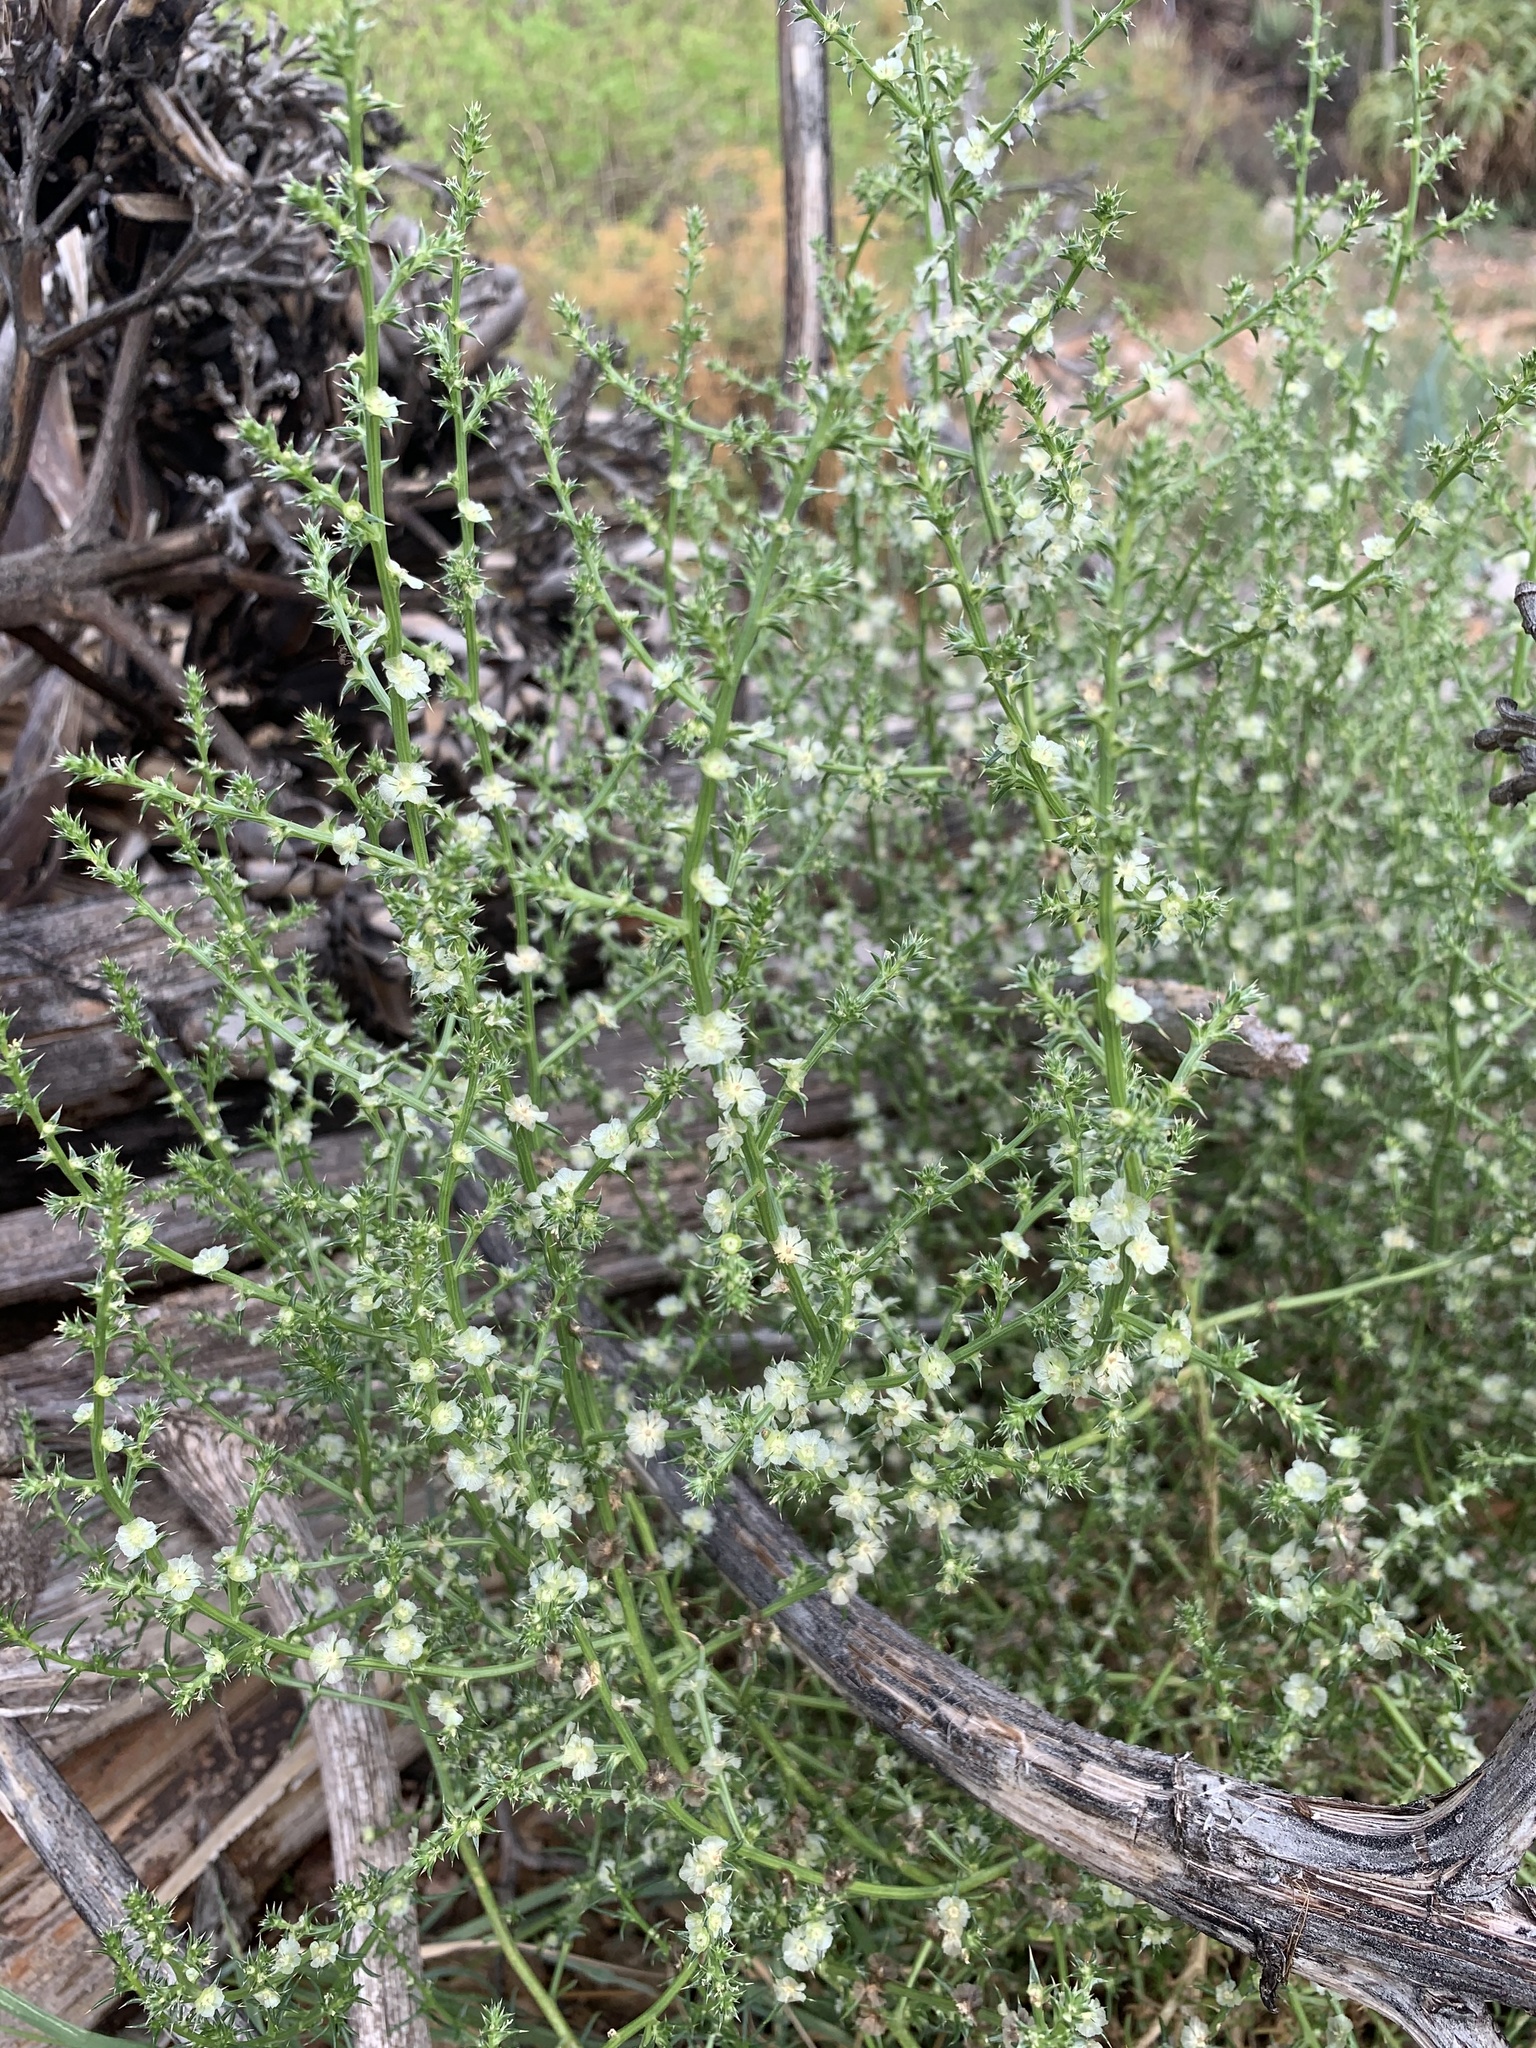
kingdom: Plantae
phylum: Tracheophyta
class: Magnoliopsida
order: Caryophyllales
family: Amaranthaceae
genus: Salsola
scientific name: Salsola kali
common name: Saltwort
